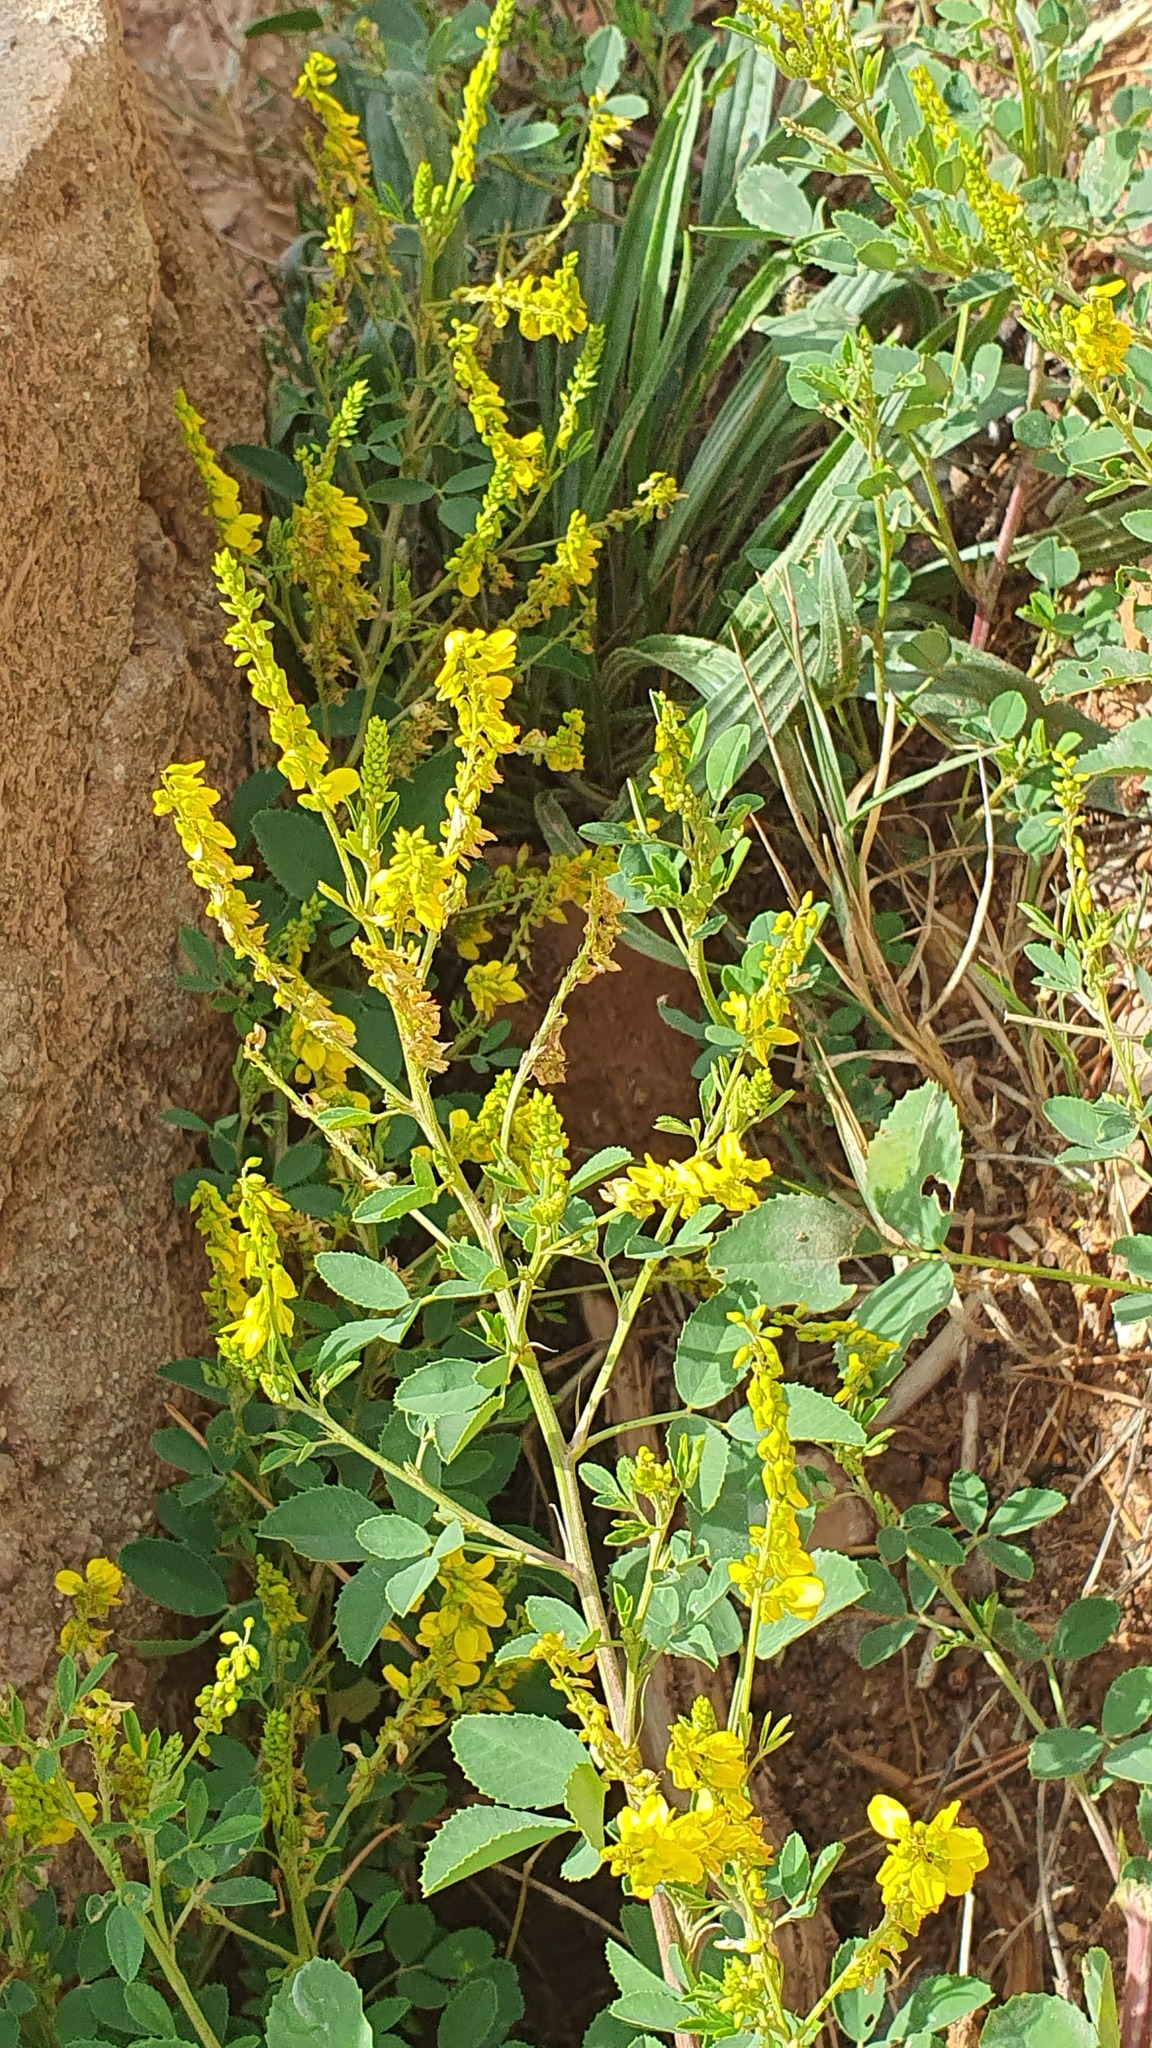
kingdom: Plantae
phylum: Tracheophyta
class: Magnoliopsida
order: Fabales
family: Fabaceae
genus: Melilotus
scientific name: Melilotus officinalis
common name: Sweetclover
